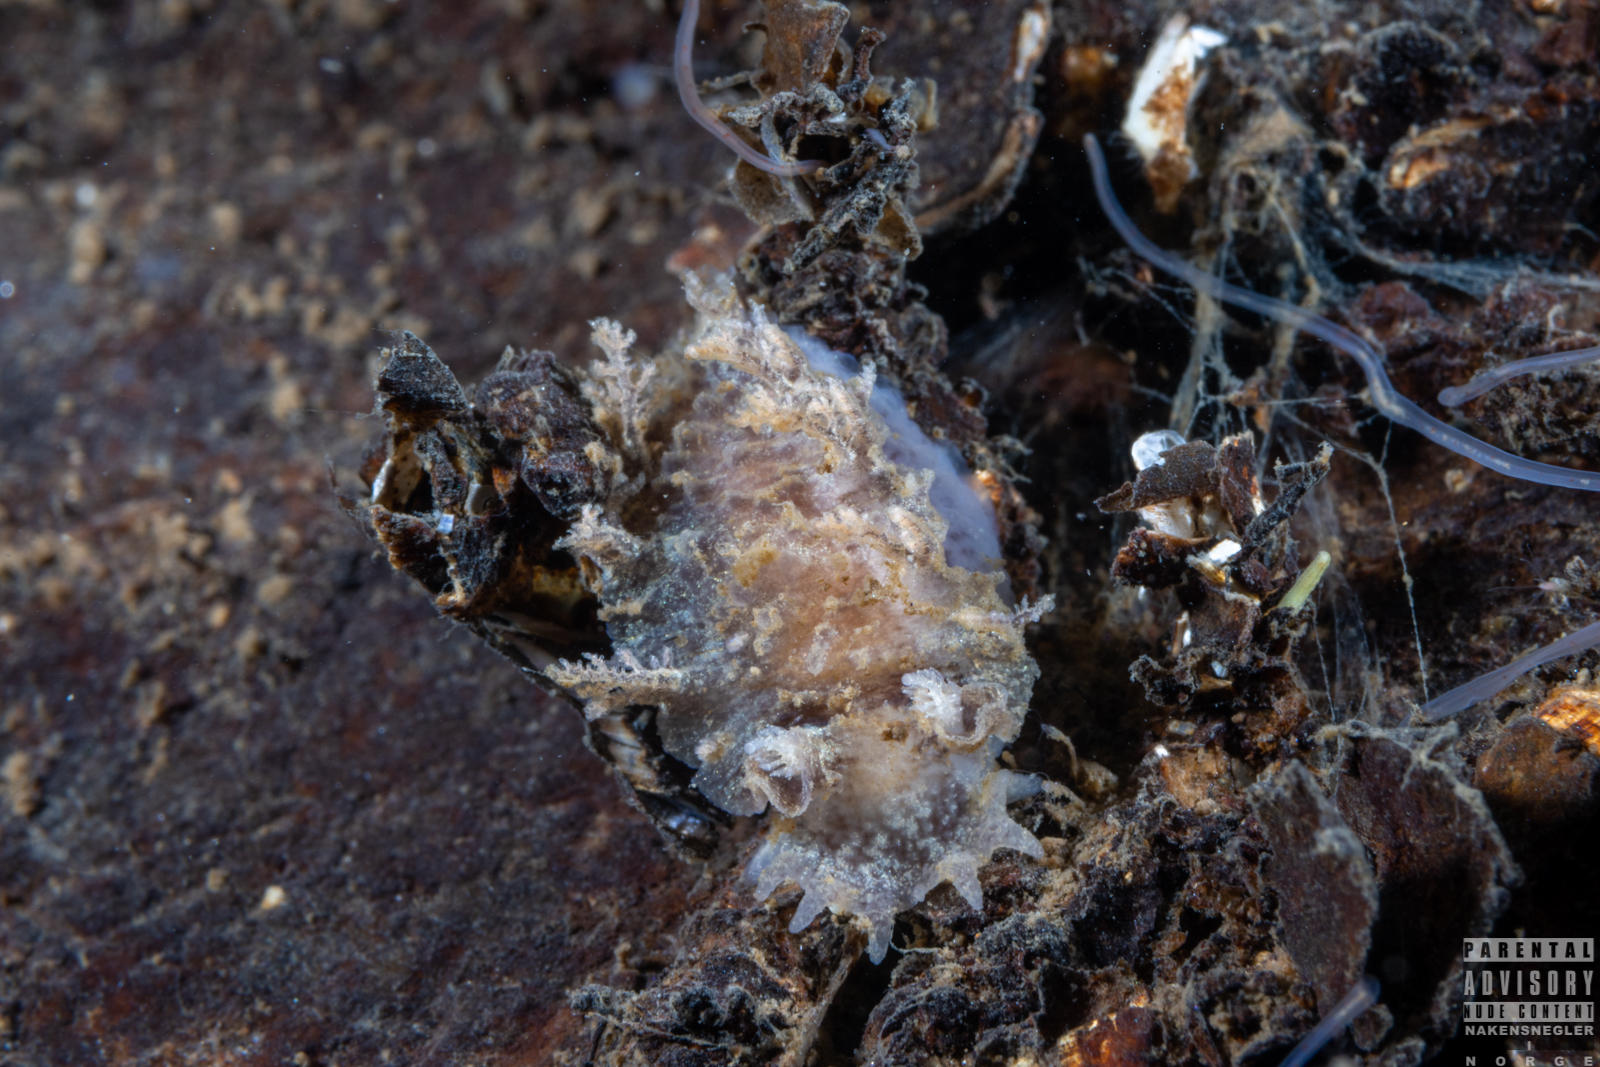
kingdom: Animalia
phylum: Mollusca
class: Gastropoda
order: Nudibranchia
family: Tritoniidae
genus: Duvaucelia
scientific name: Duvaucelia plebeia
